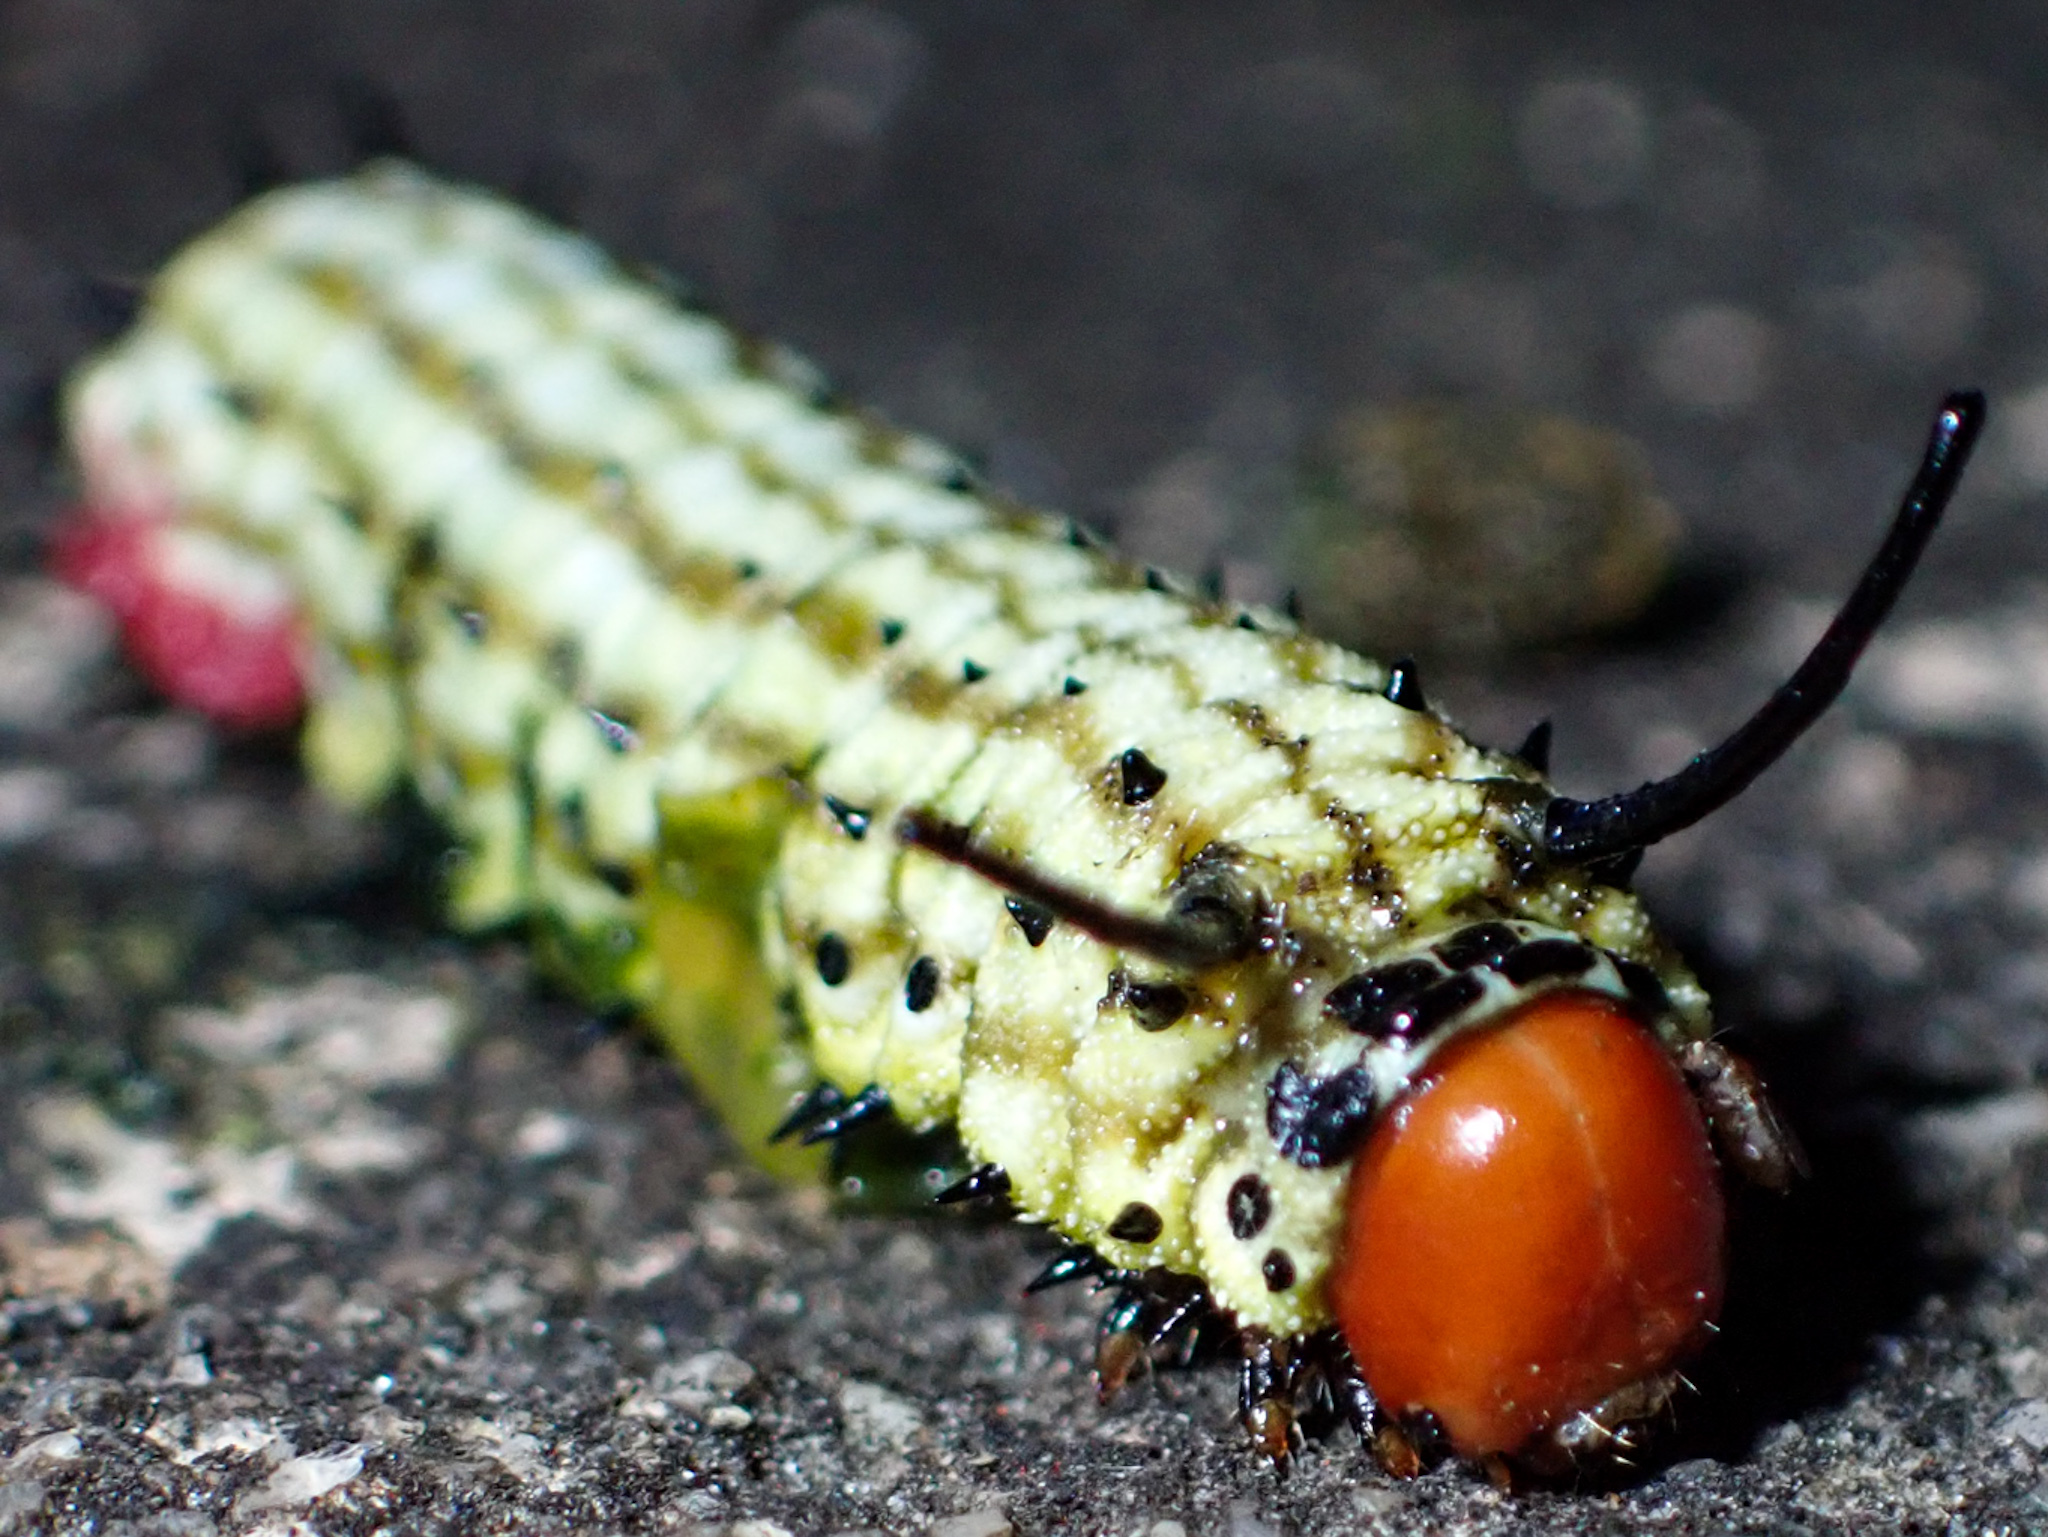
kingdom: Animalia
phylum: Arthropoda
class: Insecta
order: Lepidoptera
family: Saturniidae
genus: Dryocampa
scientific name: Dryocampa rubicunda
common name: Rosy maple moth
